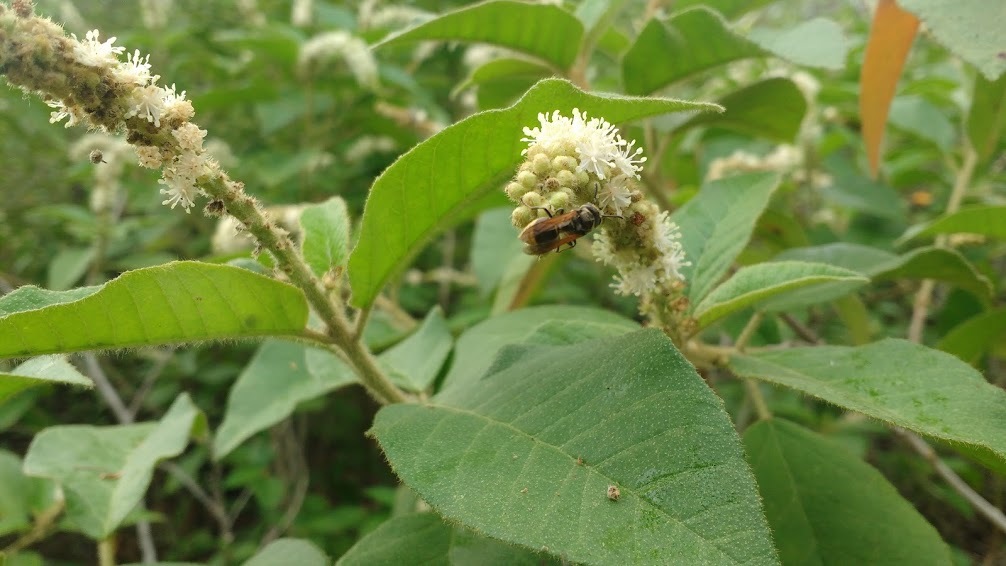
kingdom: Animalia
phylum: Arthropoda
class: Insecta
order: Hymenoptera
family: Vespidae
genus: Brachygastra
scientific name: Brachygastra lecheguana
